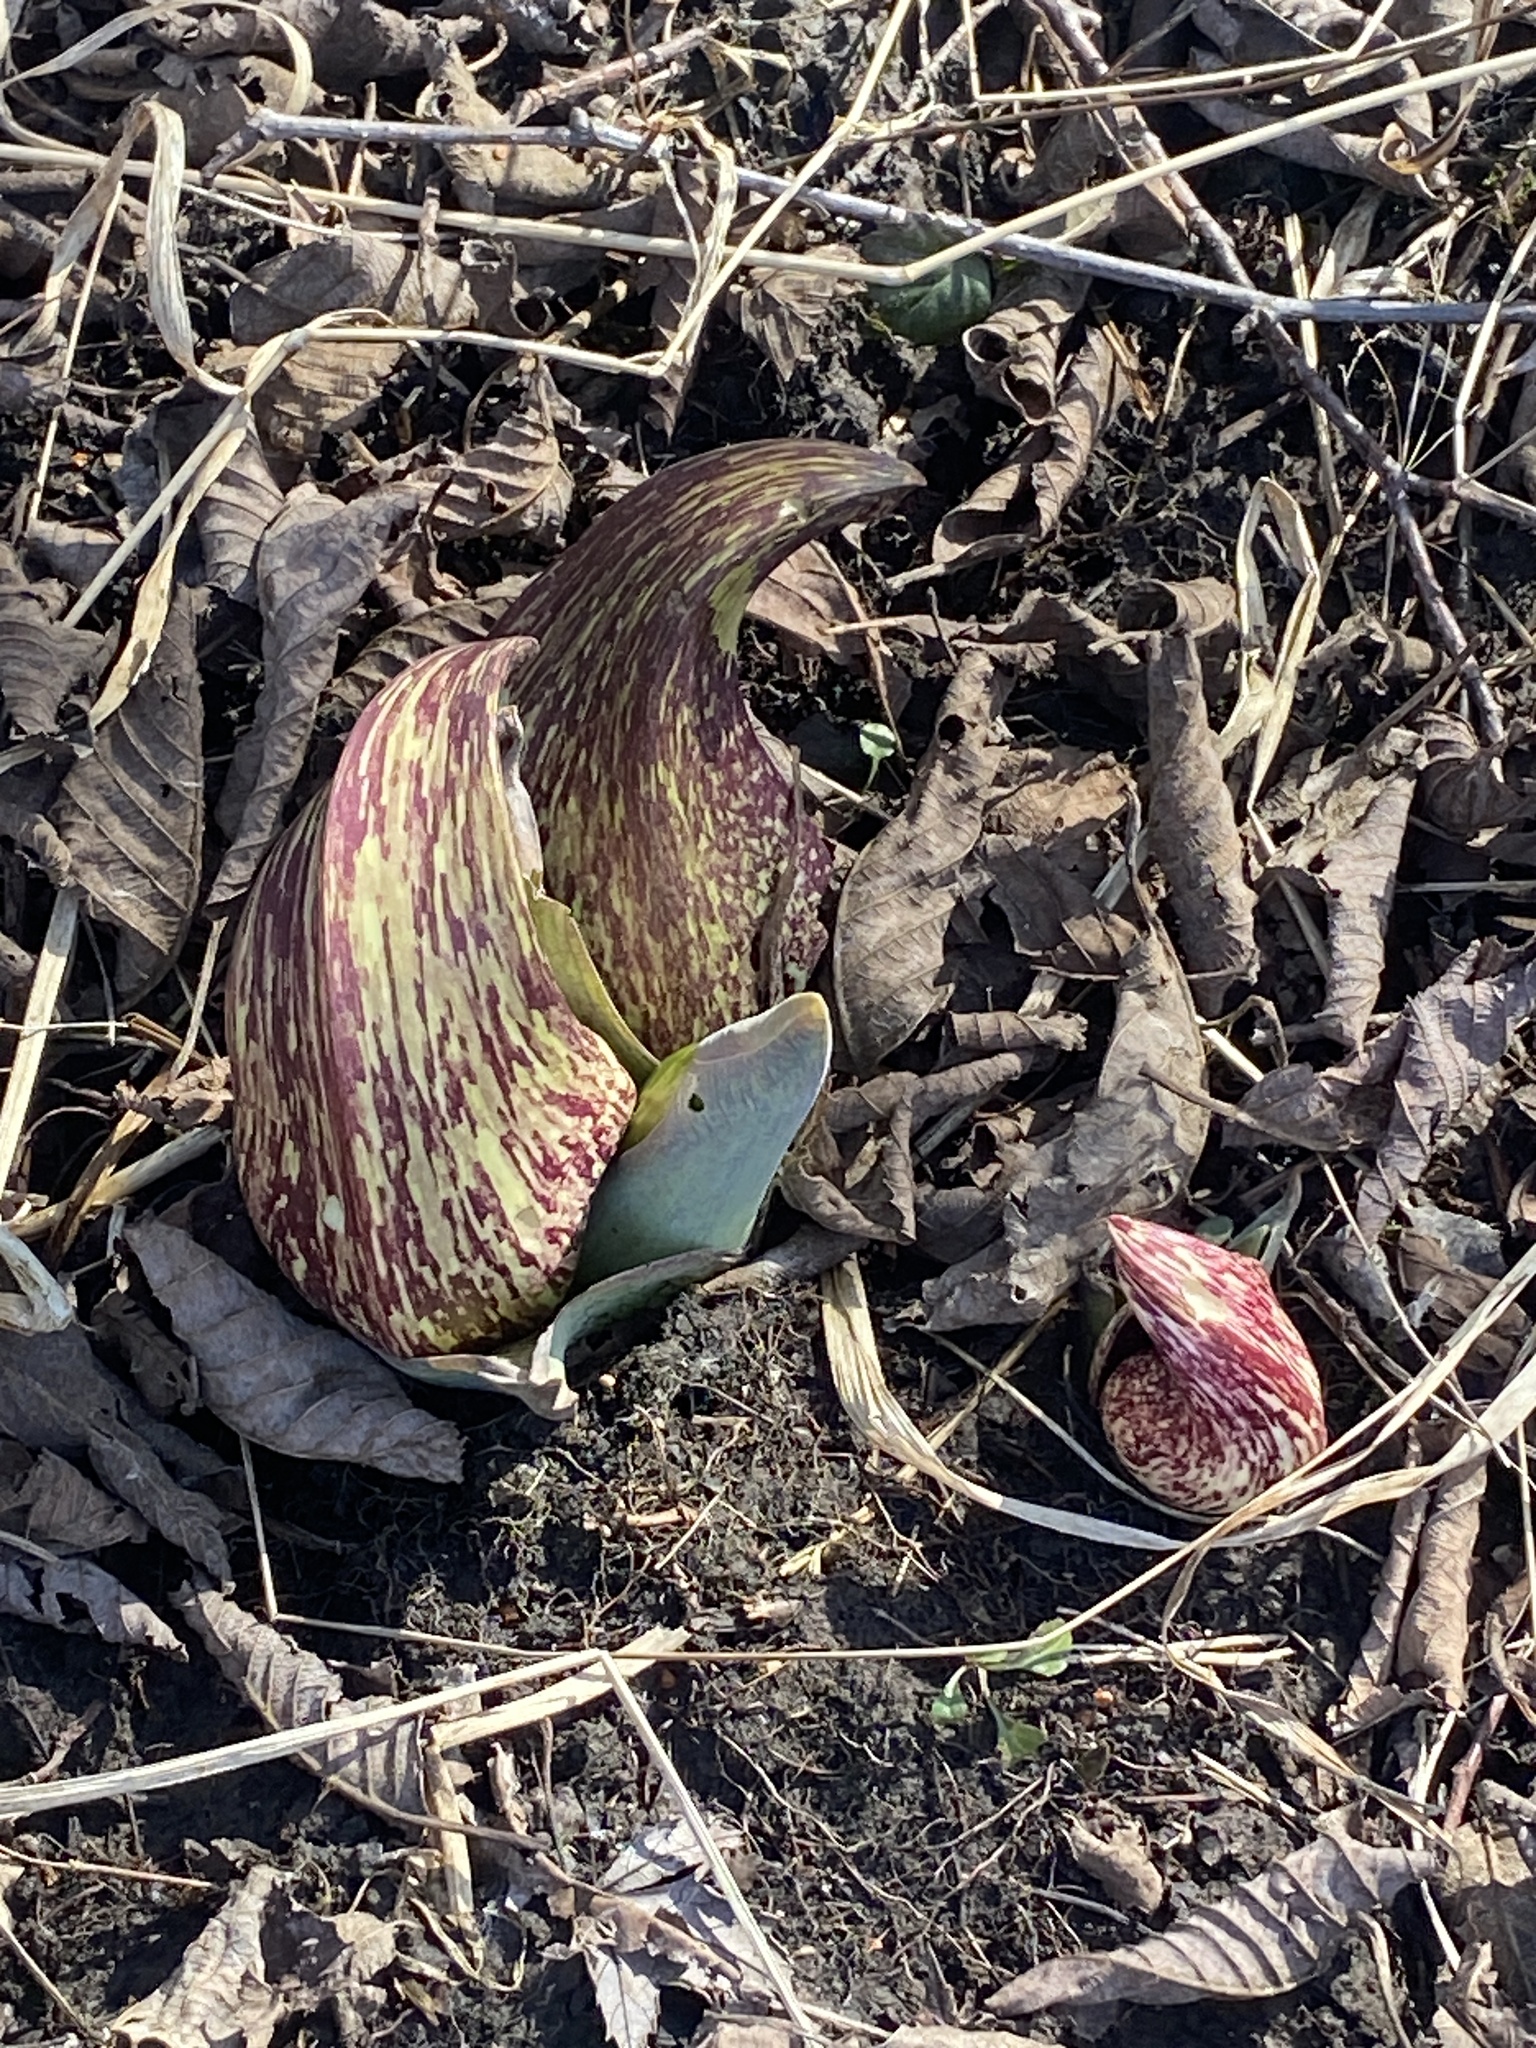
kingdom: Plantae
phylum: Tracheophyta
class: Liliopsida
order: Alismatales
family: Araceae
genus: Symplocarpus
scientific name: Symplocarpus foetidus
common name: Eastern skunk cabbage
